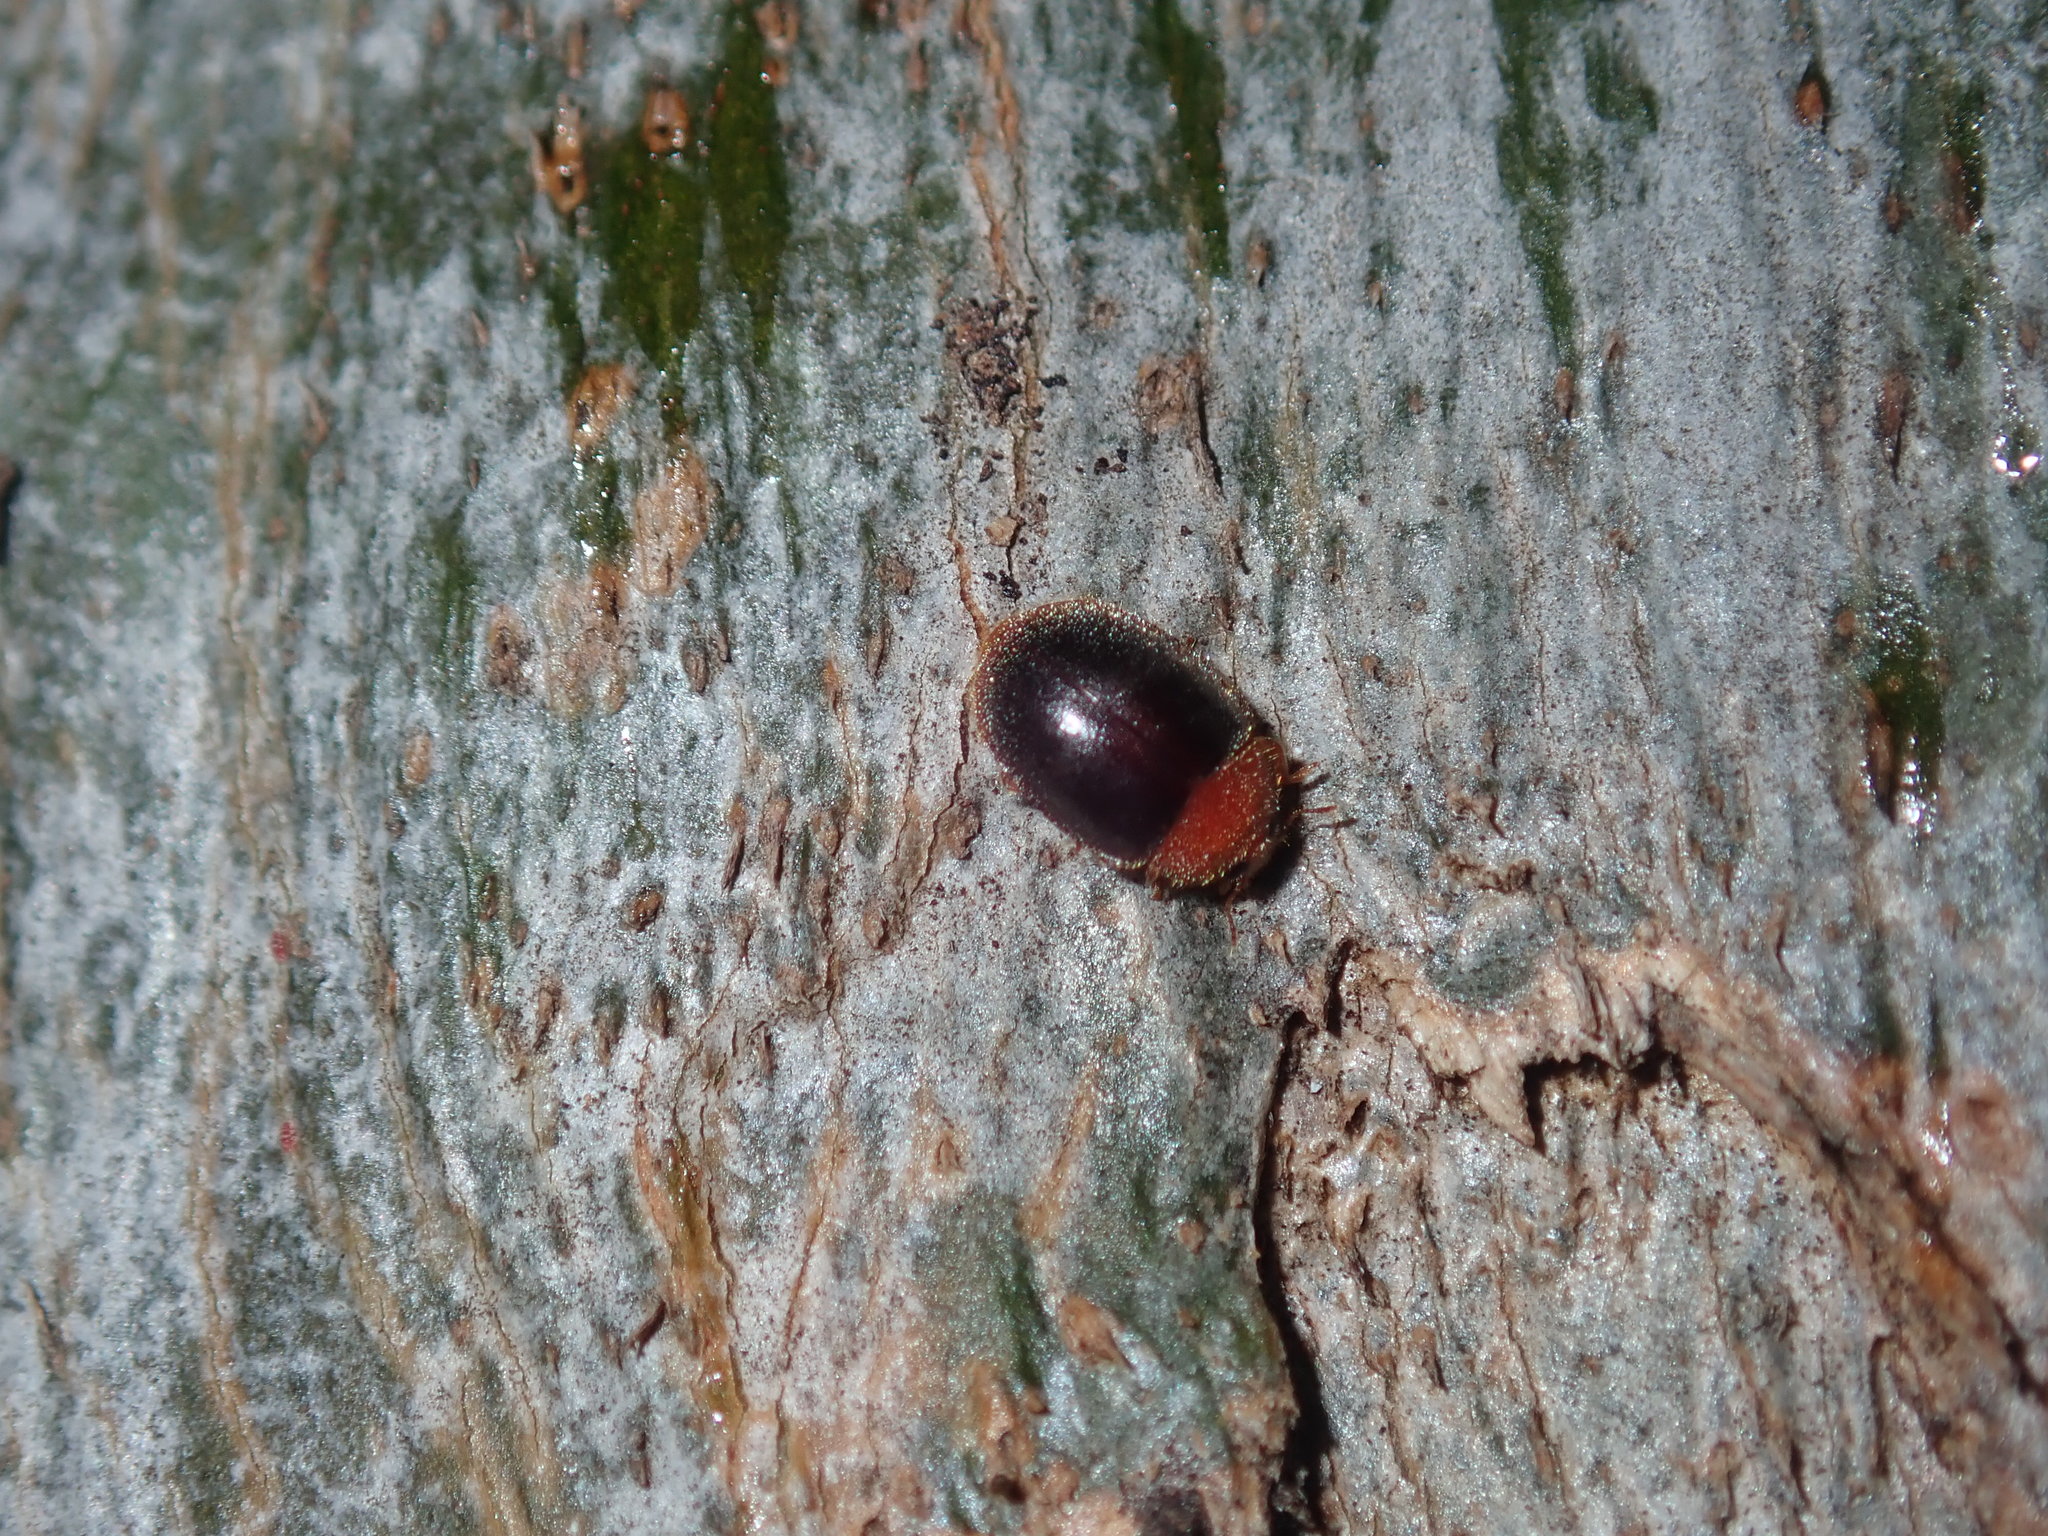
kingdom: Animalia
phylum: Arthropoda
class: Insecta
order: Coleoptera
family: Coccinellidae
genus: Cryptolaemus
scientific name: Cryptolaemus montrouzieri
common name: Mealybug destroyer
